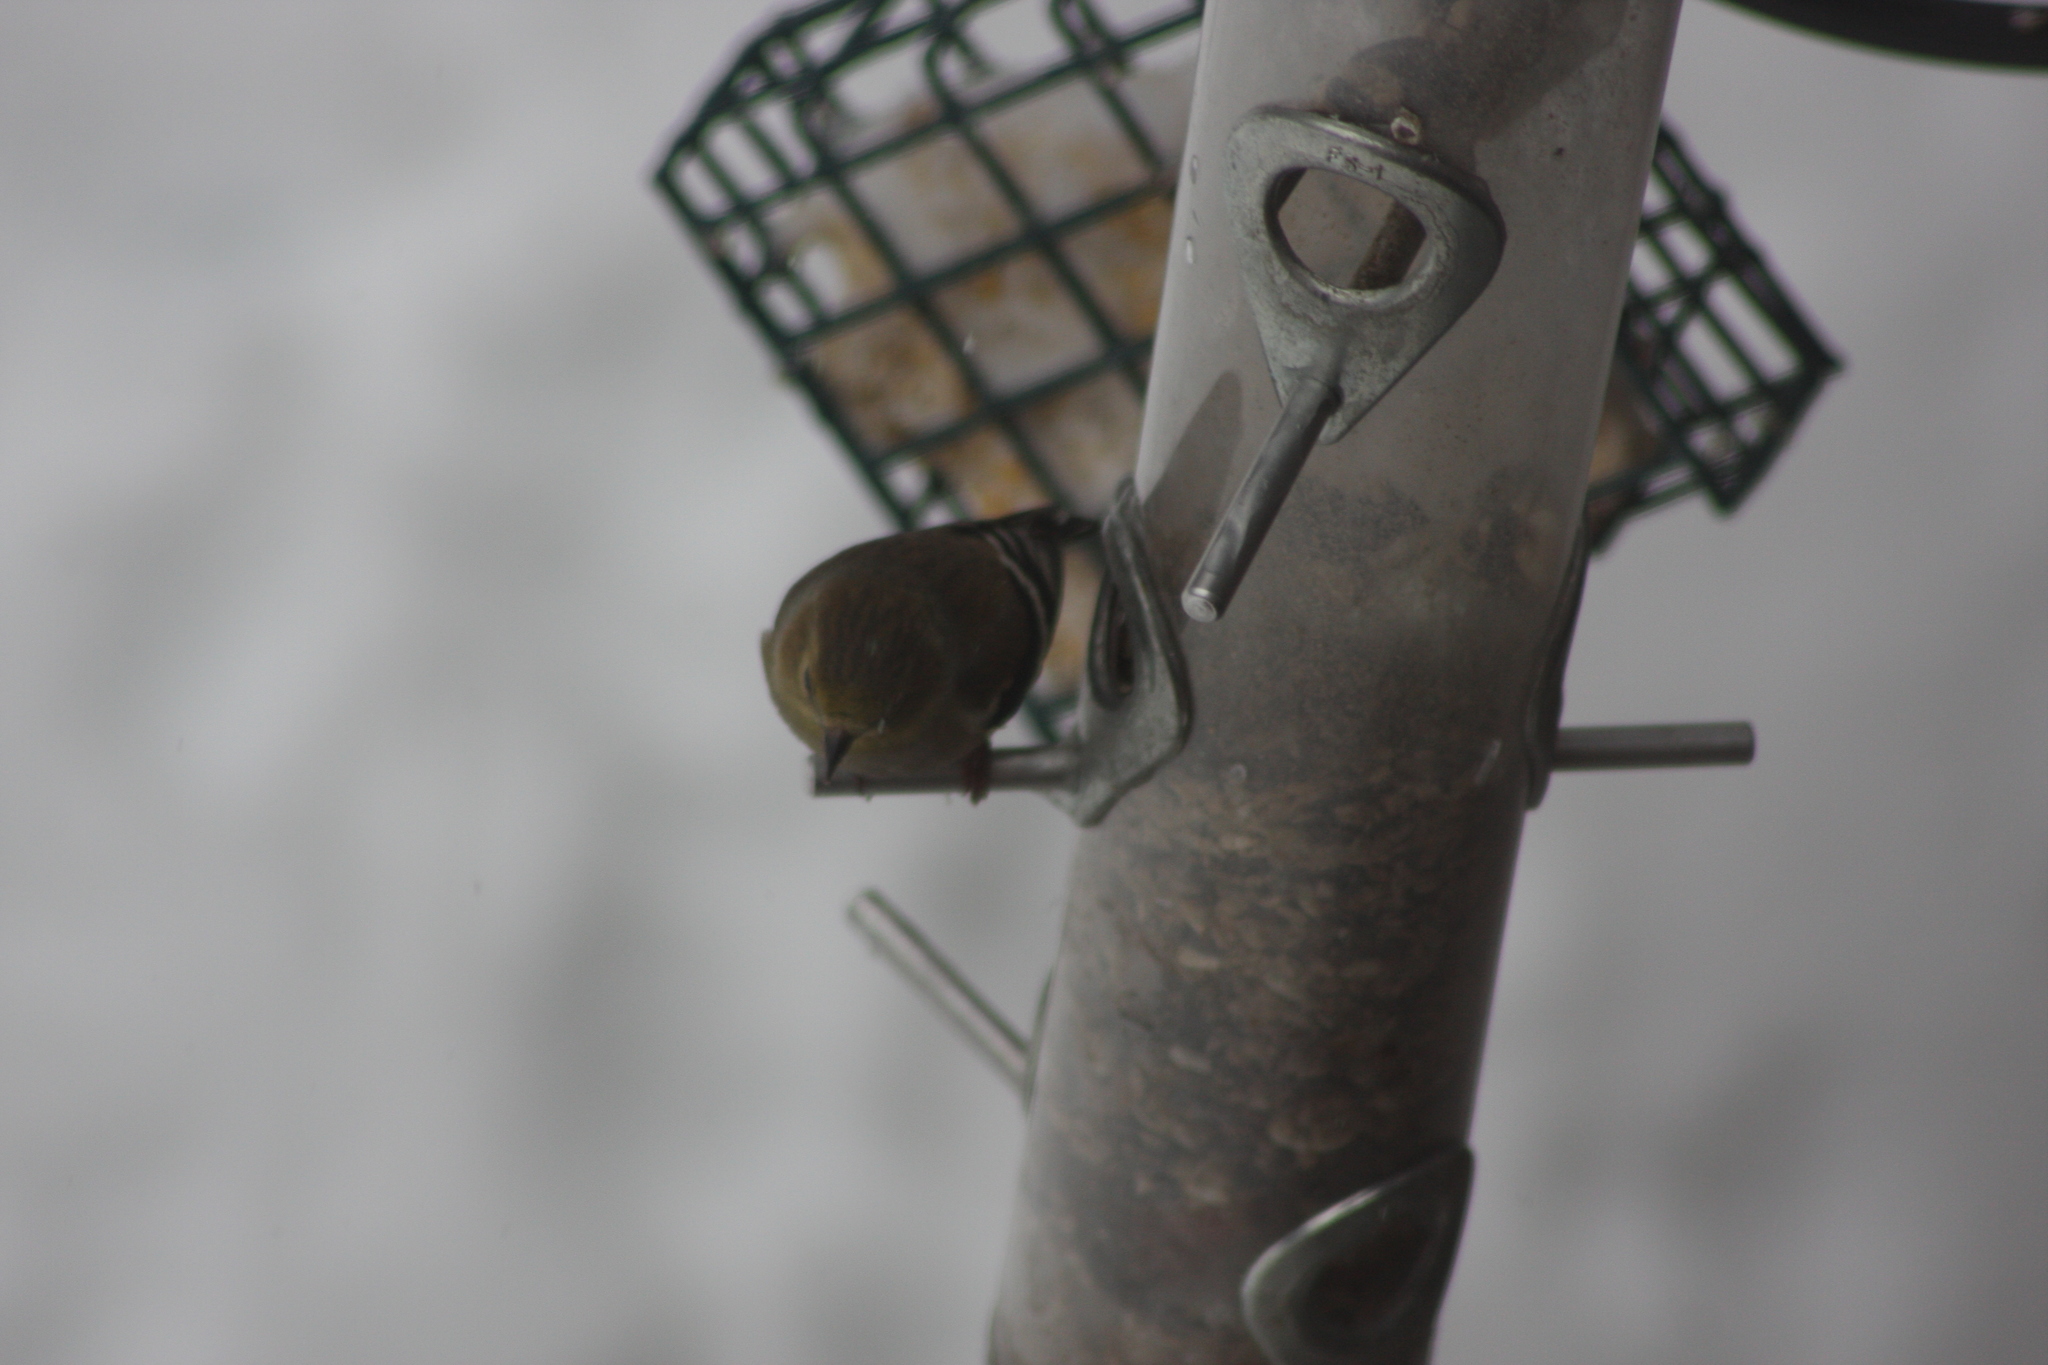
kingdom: Animalia
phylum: Chordata
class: Aves
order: Passeriformes
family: Fringillidae
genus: Spinus
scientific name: Spinus tristis
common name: American goldfinch
